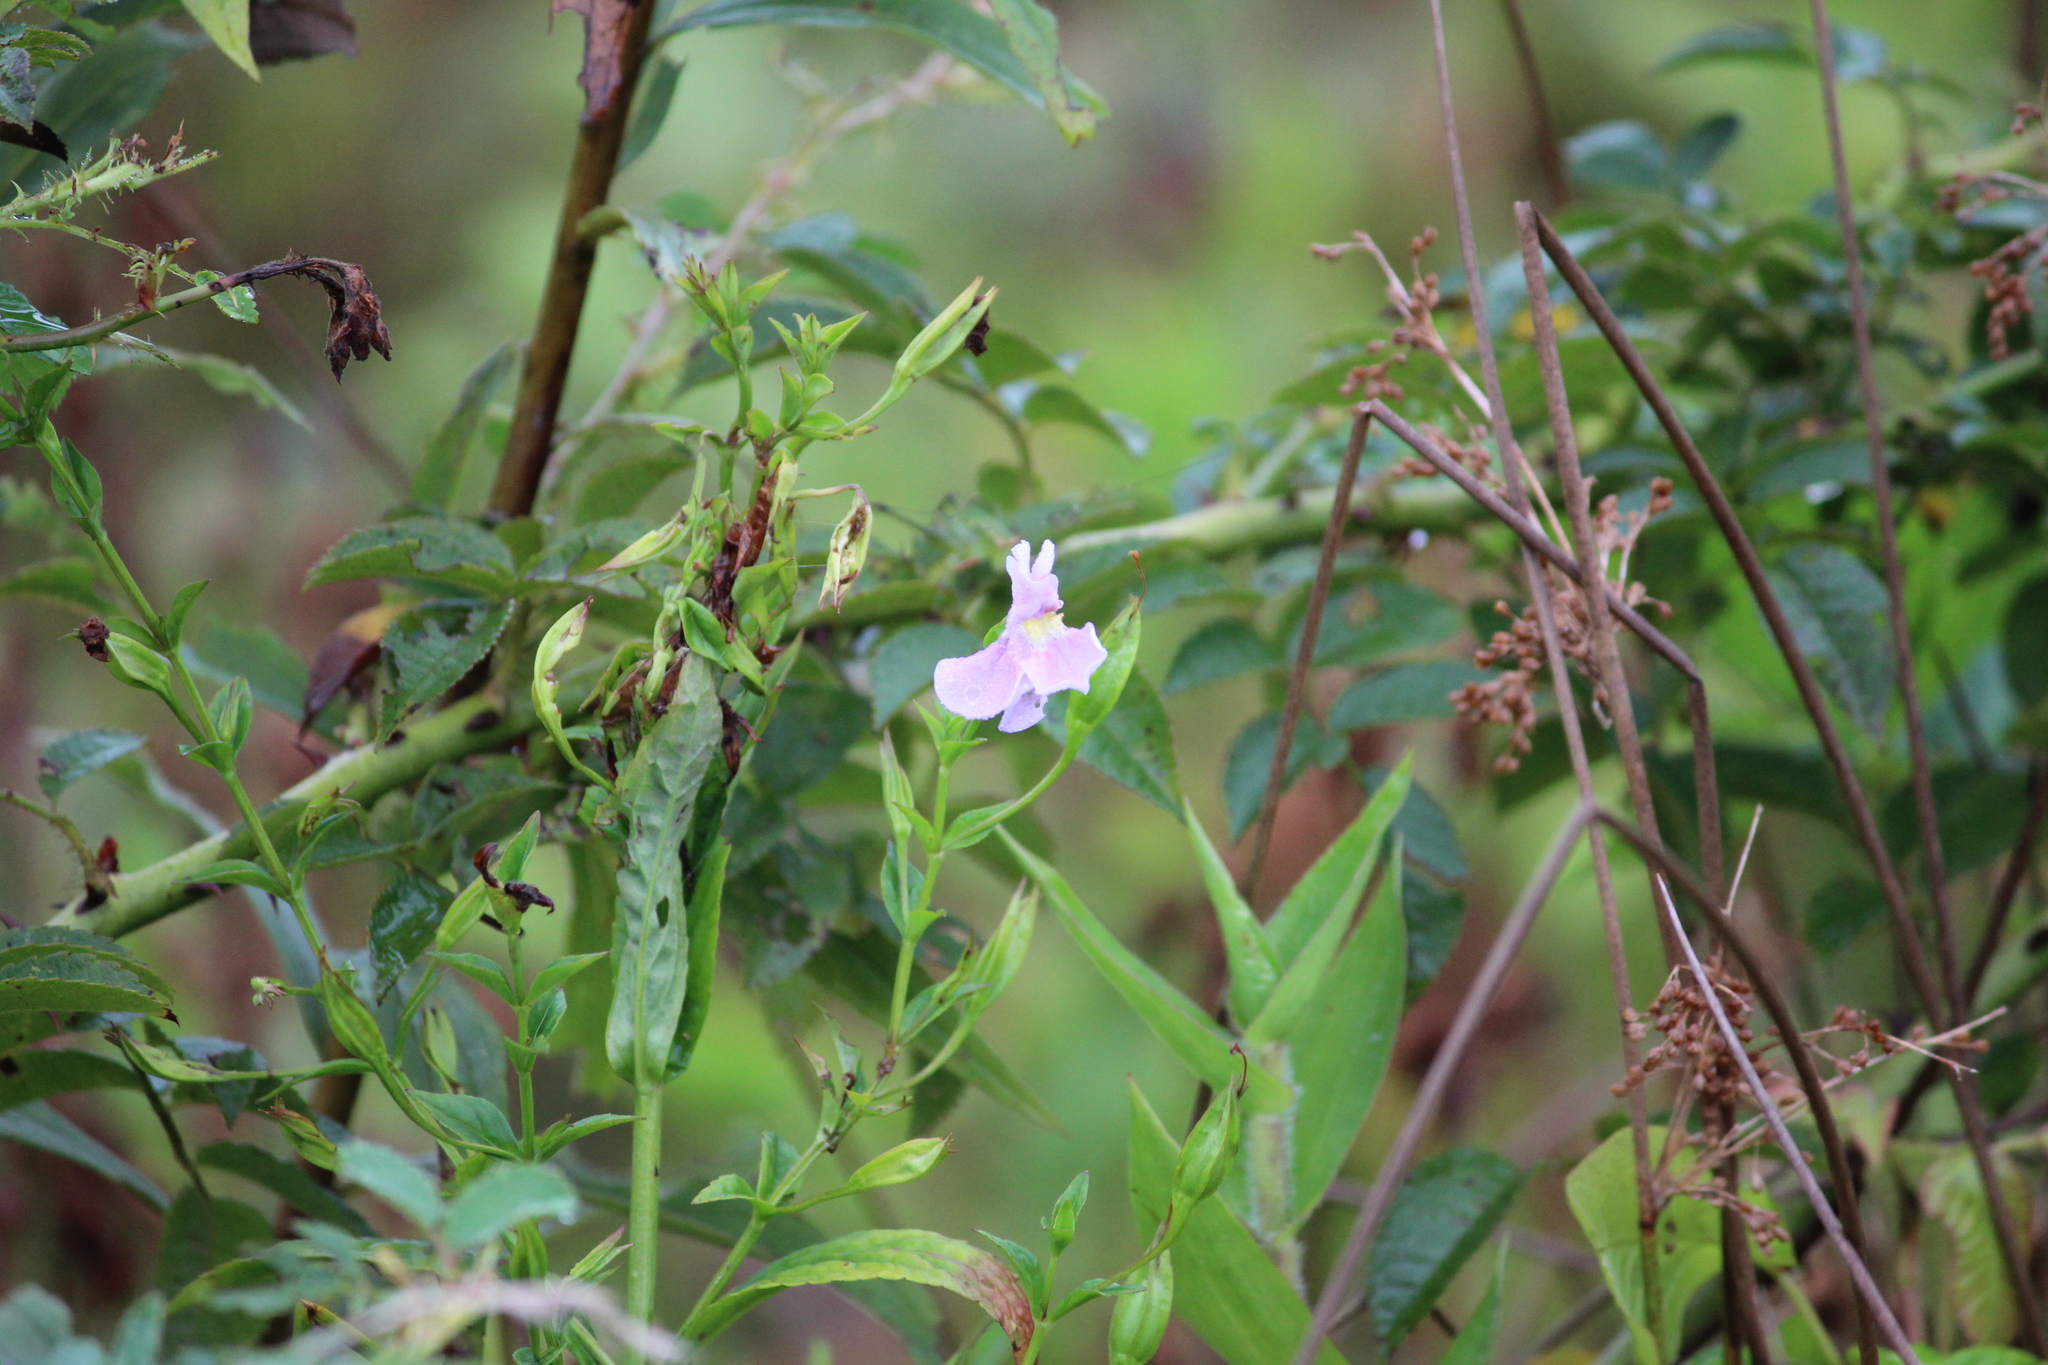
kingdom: Plantae
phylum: Tracheophyta
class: Magnoliopsida
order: Lamiales
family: Phrymaceae
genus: Mimulus
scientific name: Mimulus ringens
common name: Allegheny monkeyflower
